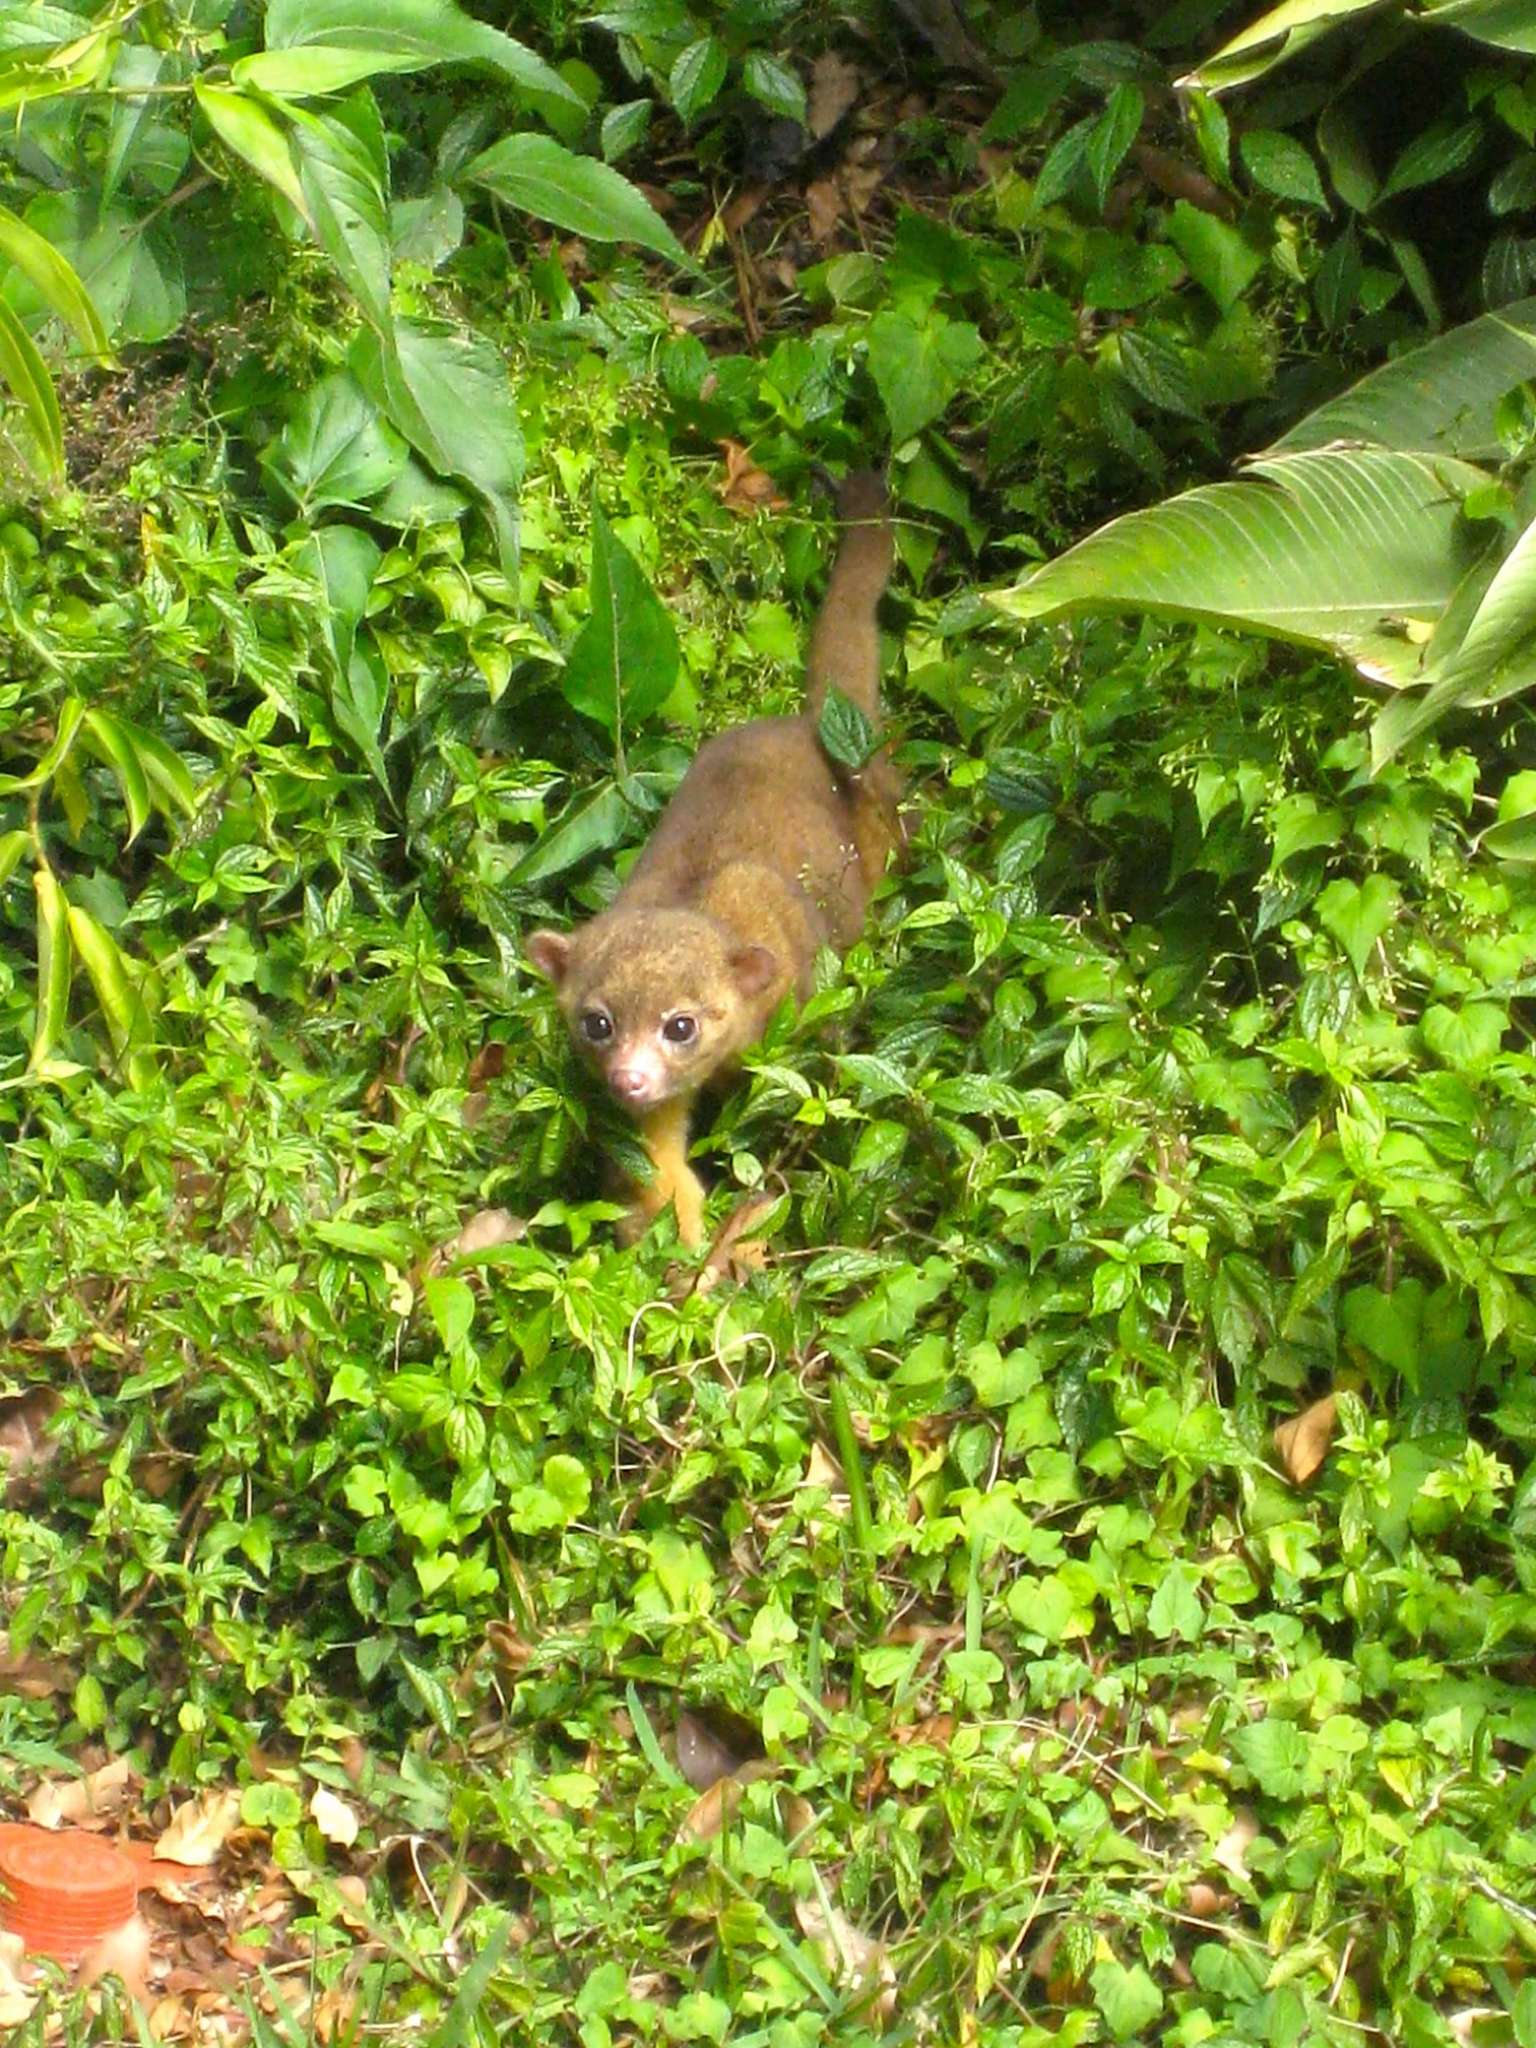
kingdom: Animalia
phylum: Chordata
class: Mammalia
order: Carnivora
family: Procyonidae
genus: Potos
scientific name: Potos flavus
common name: Kinkajou
